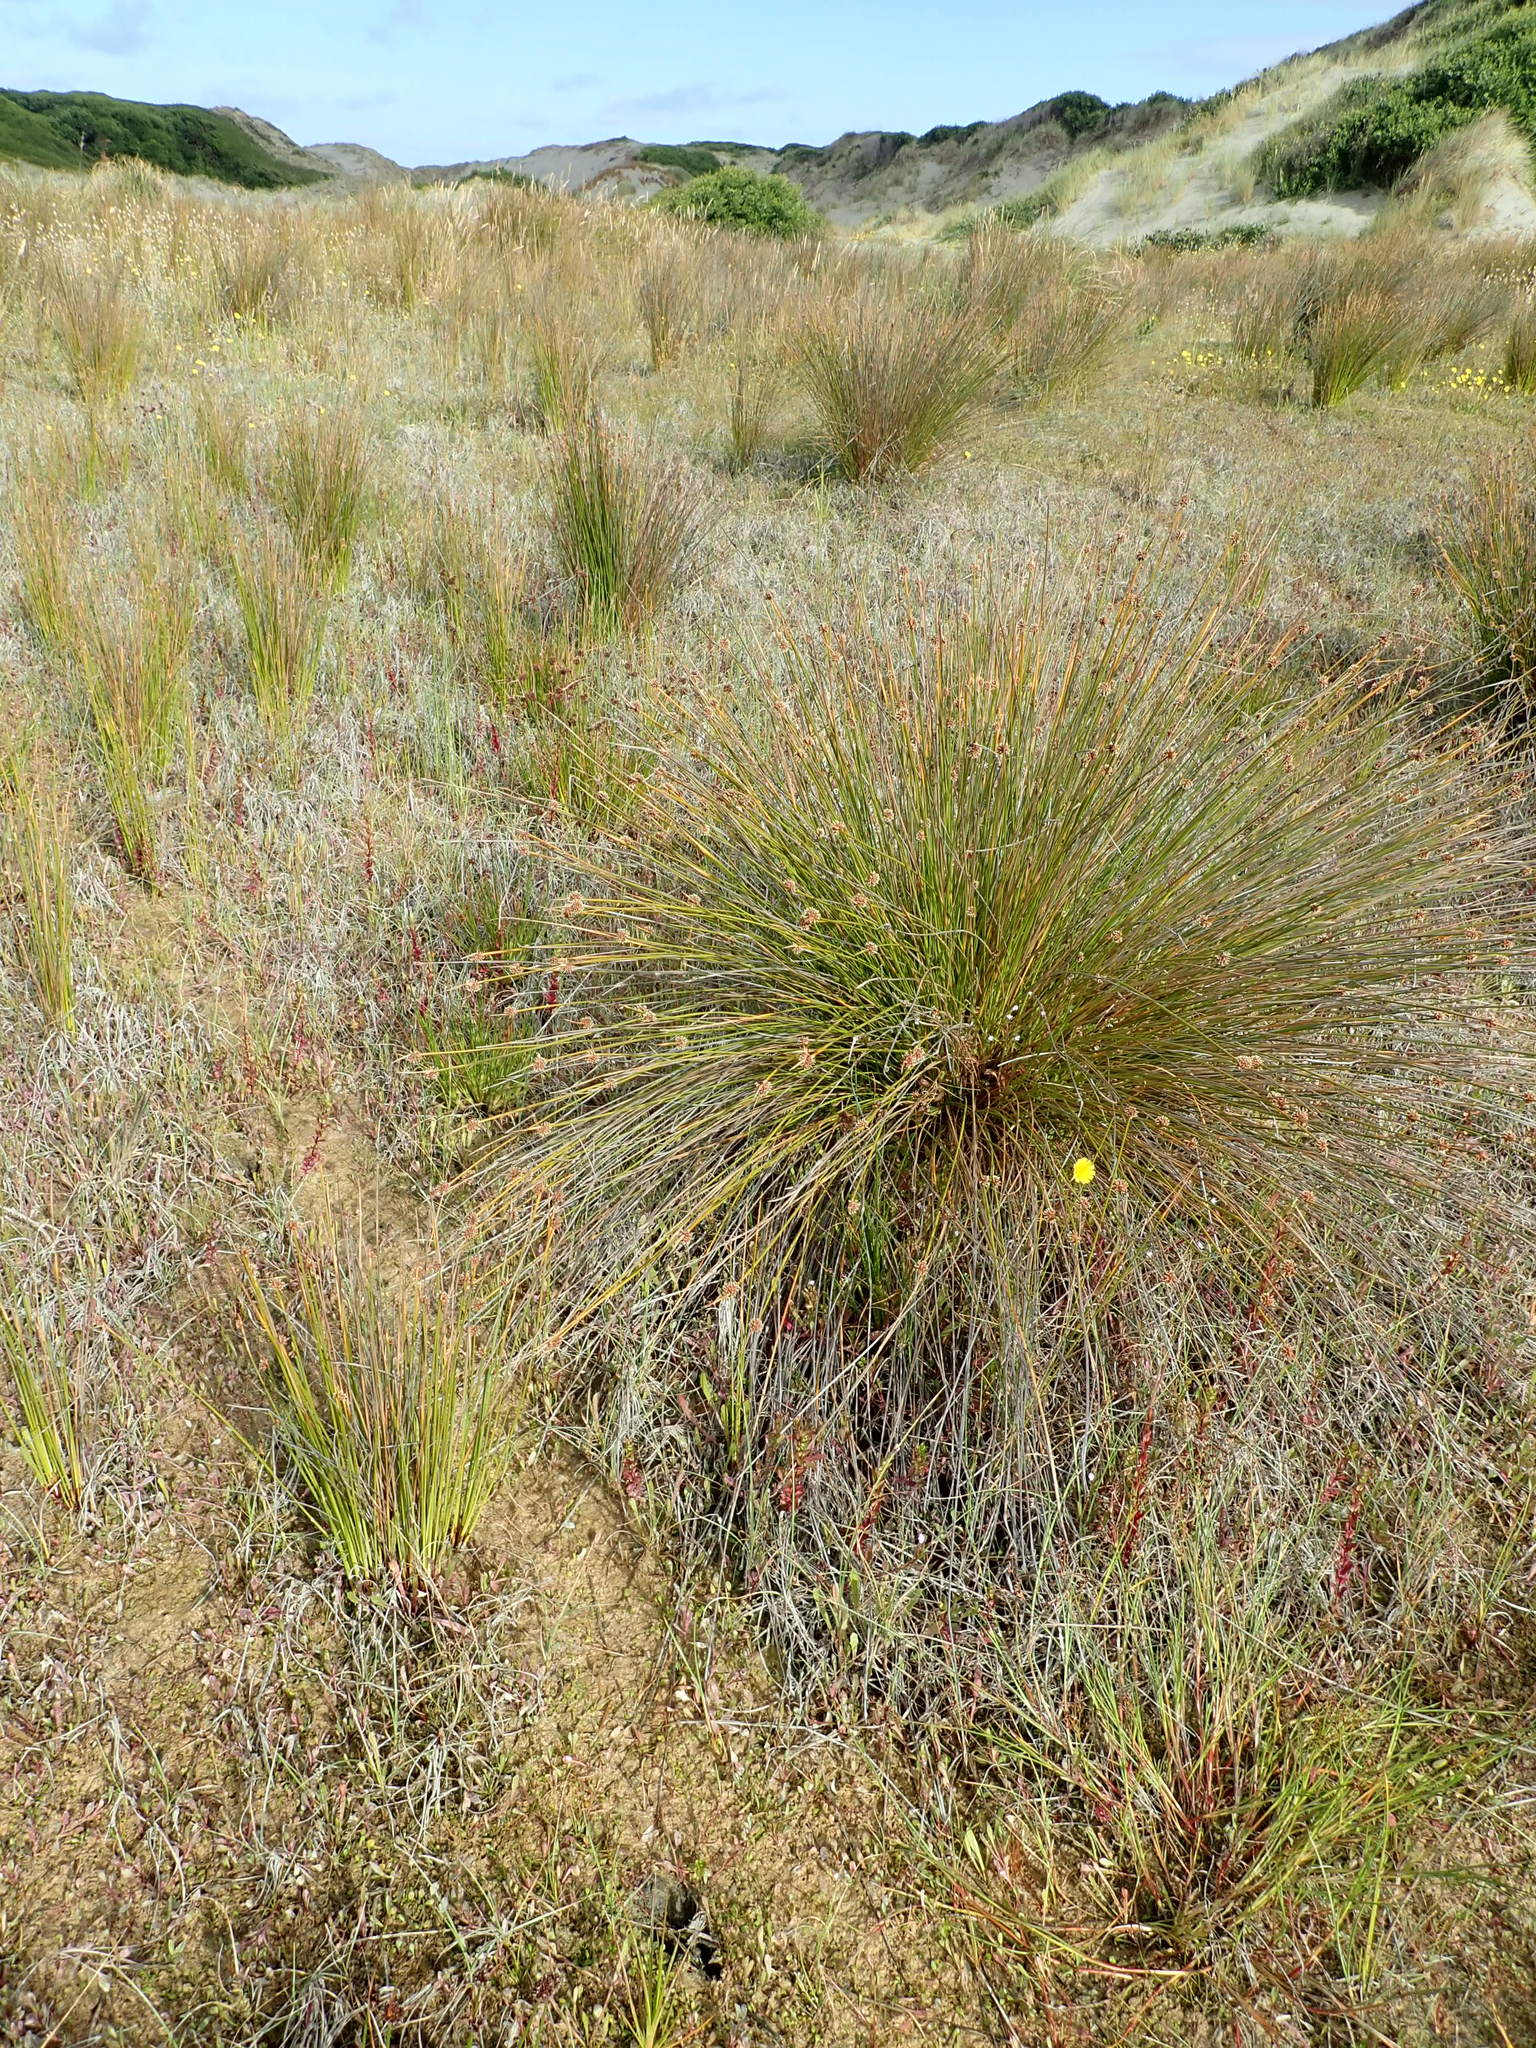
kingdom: Plantae
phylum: Tracheophyta
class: Magnoliopsida
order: Asterales
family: Campanulaceae
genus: Lobelia
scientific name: Lobelia anceps
